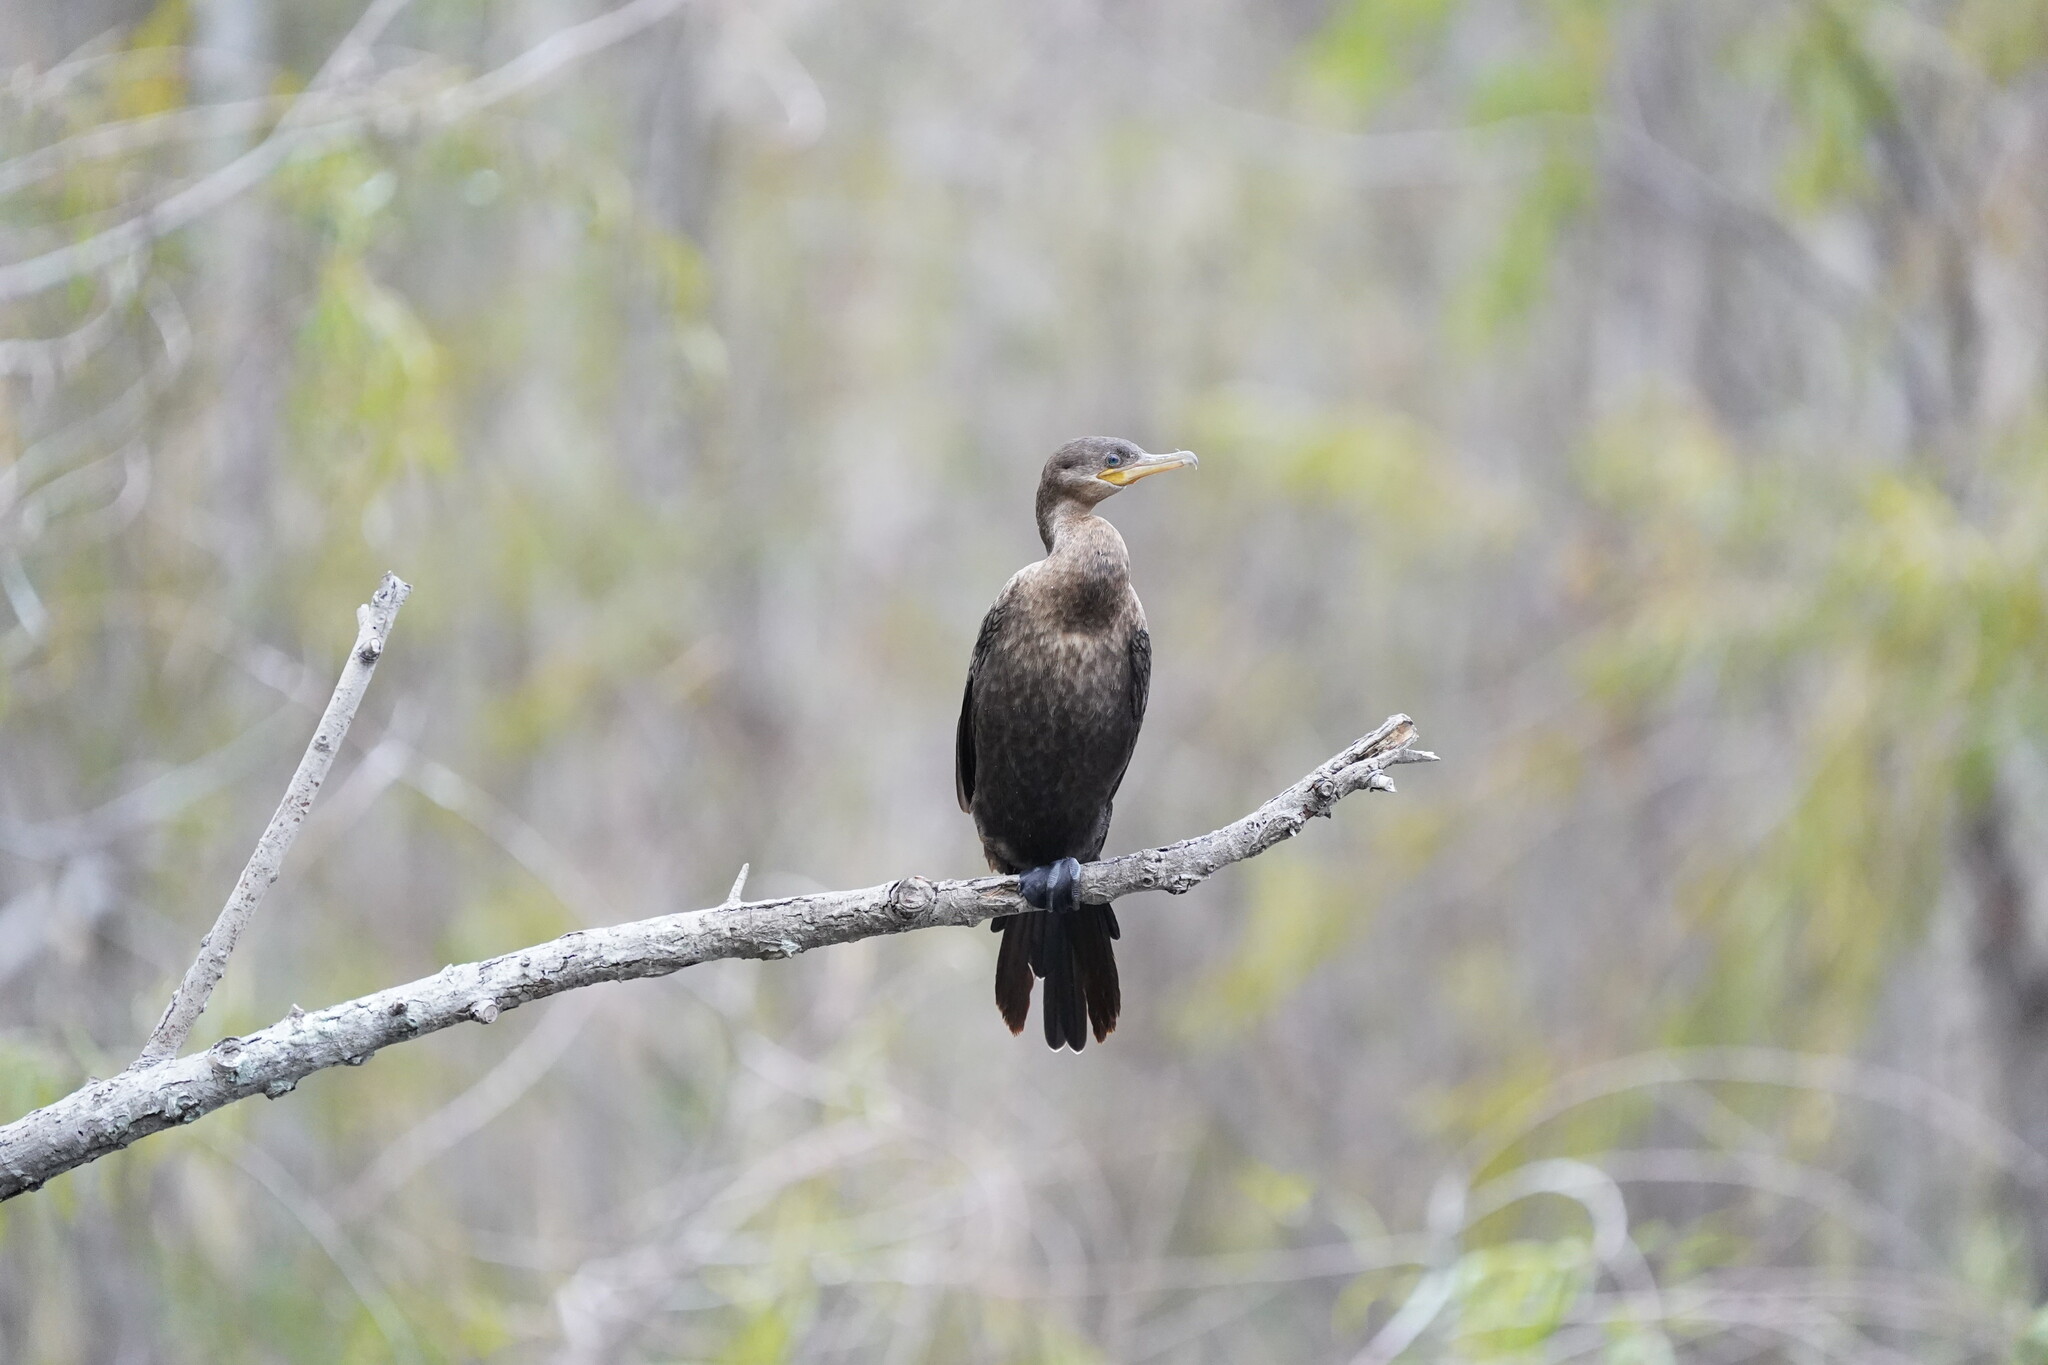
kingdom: Animalia
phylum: Chordata
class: Aves
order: Suliformes
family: Phalacrocoracidae
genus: Phalacrocorax
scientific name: Phalacrocorax brasilianus
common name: Neotropic cormorant
